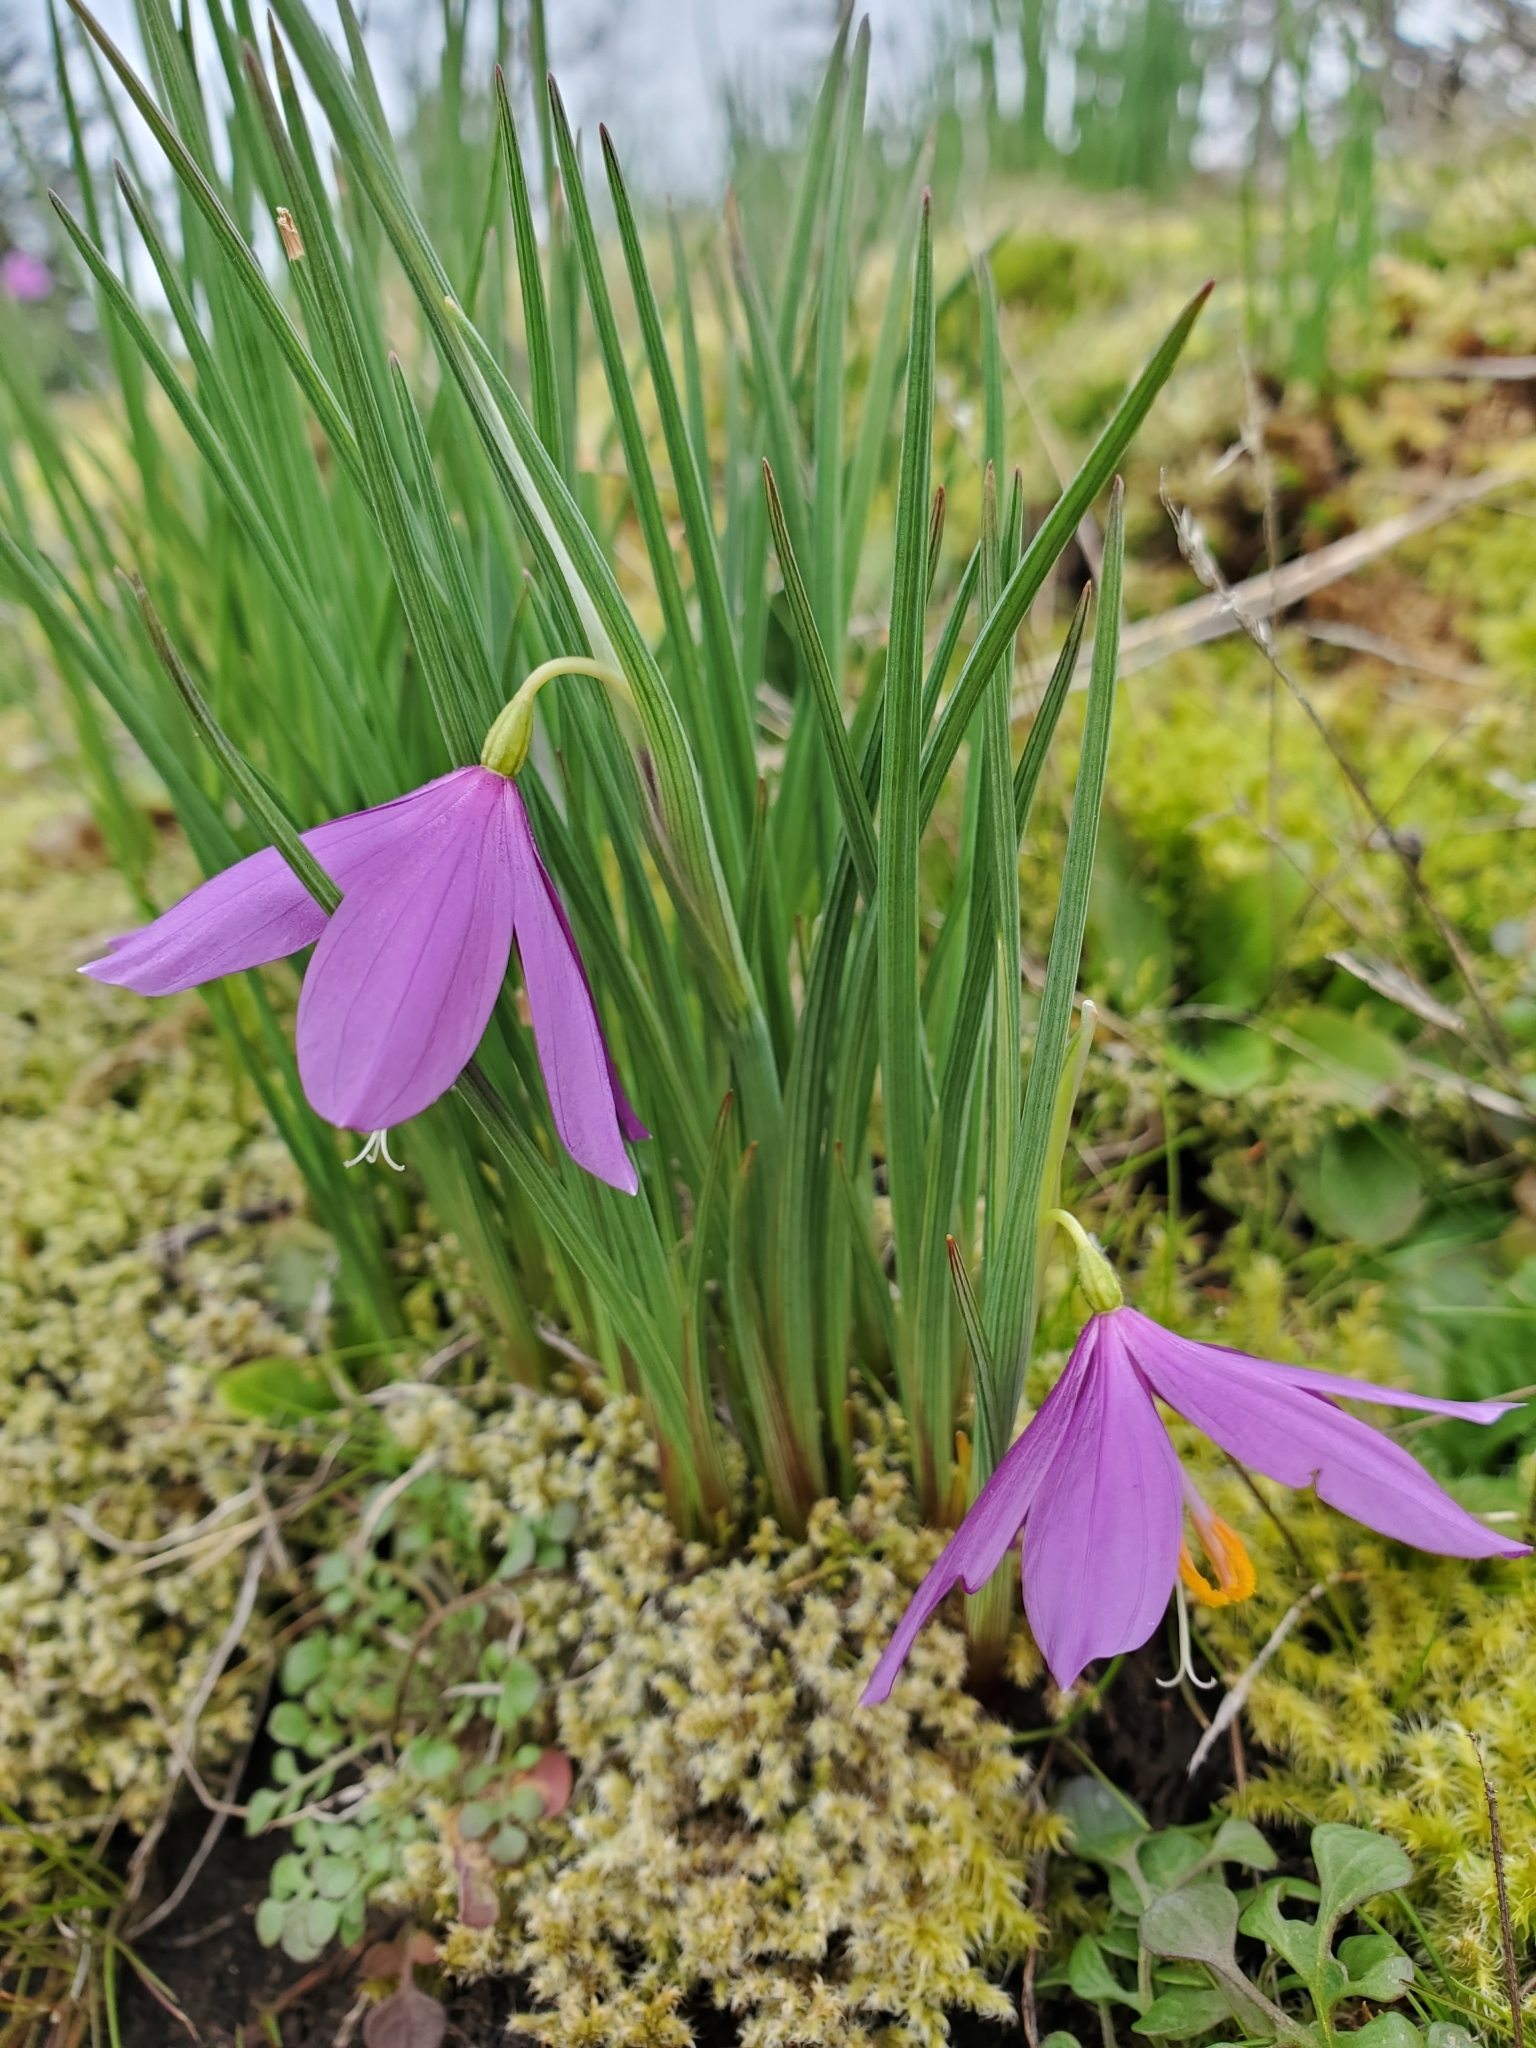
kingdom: Plantae
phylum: Tracheophyta
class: Liliopsida
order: Asparagales
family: Iridaceae
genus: Olsynium
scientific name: Olsynium douglasii
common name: Douglas' grasswidow
